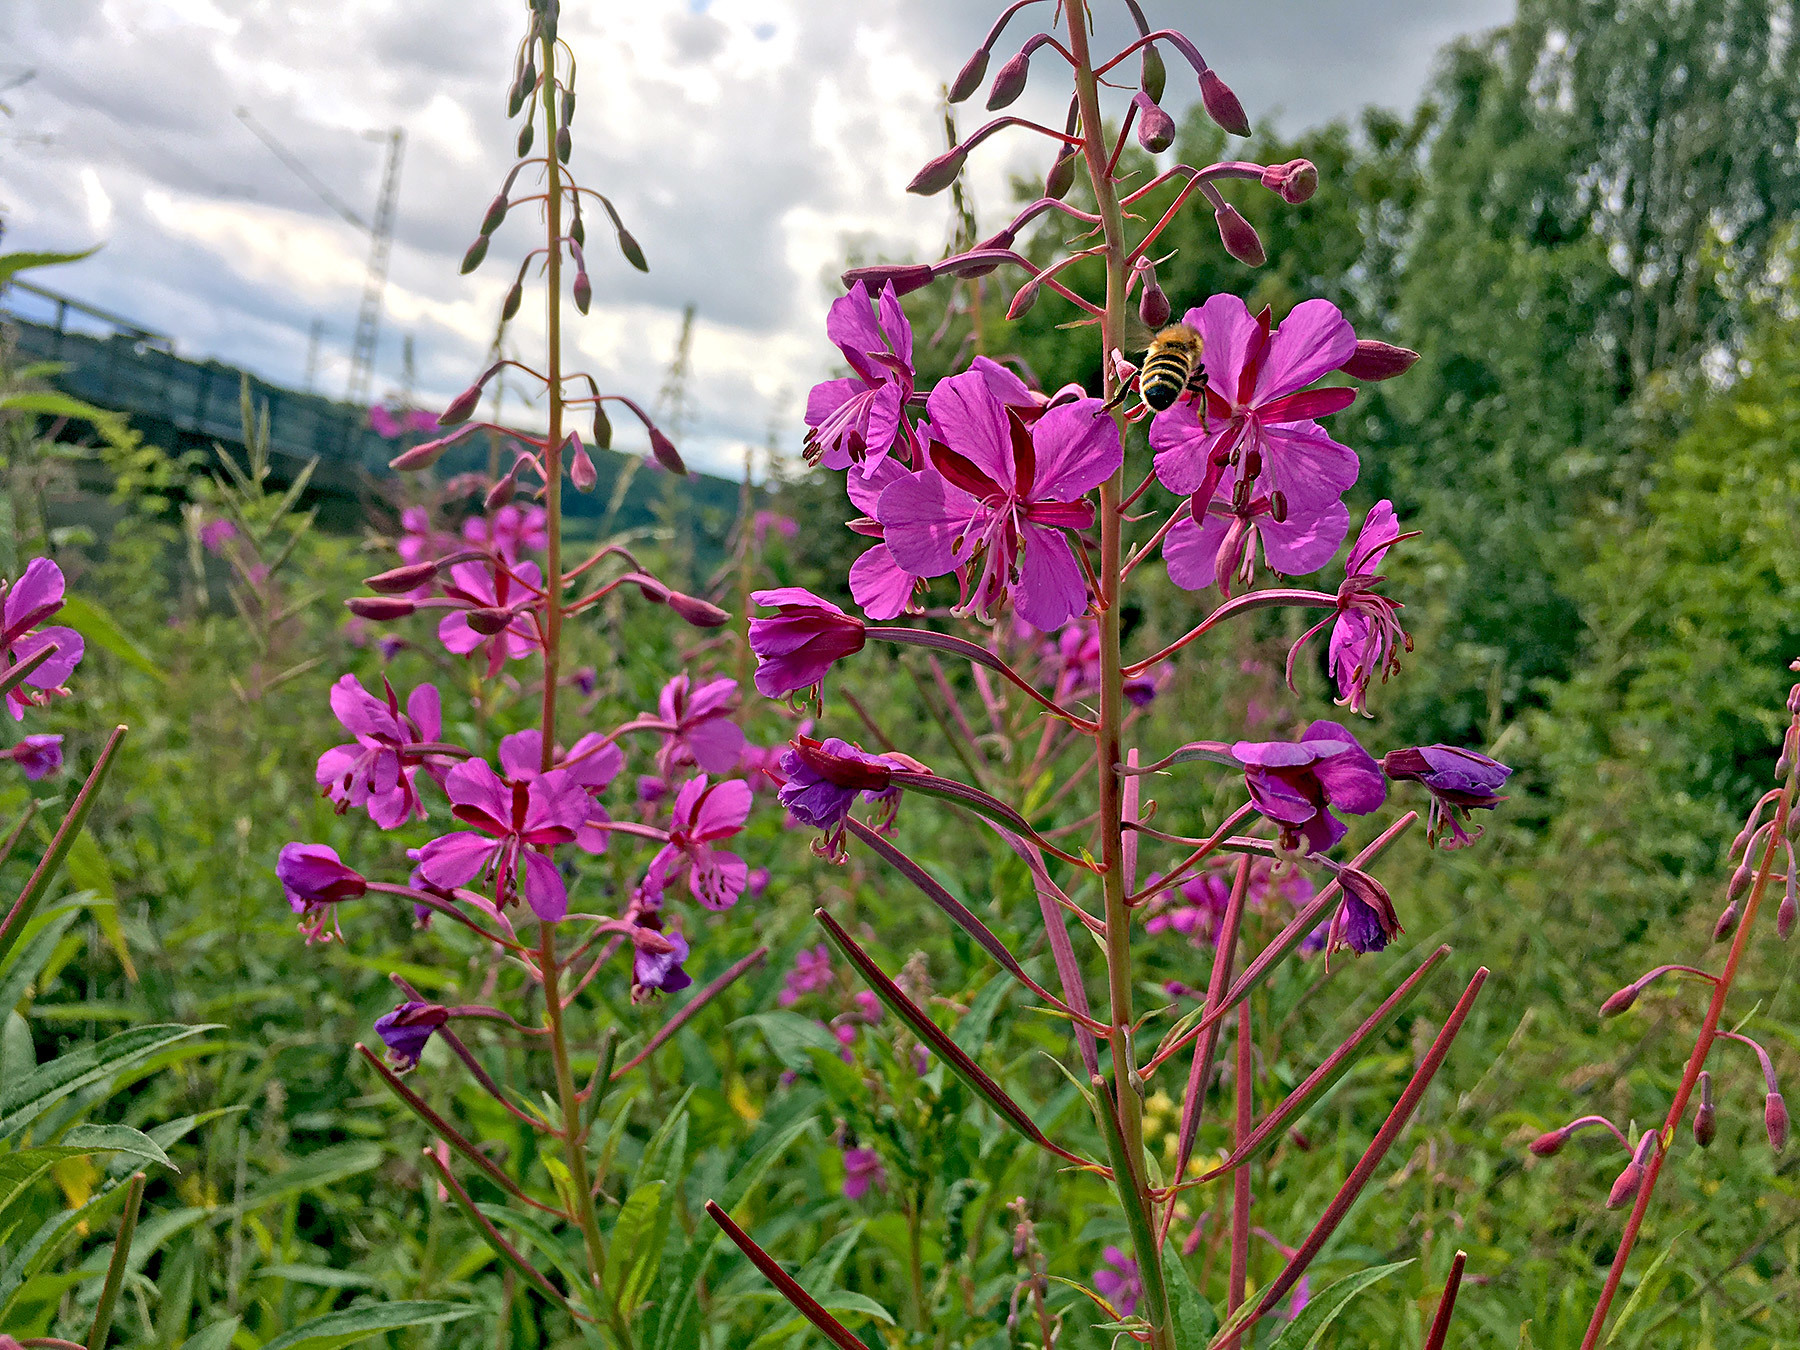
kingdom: Plantae
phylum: Tracheophyta
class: Magnoliopsida
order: Myrtales
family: Onagraceae
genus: Chamaenerion
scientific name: Chamaenerion angustifolium
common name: Fireweed
